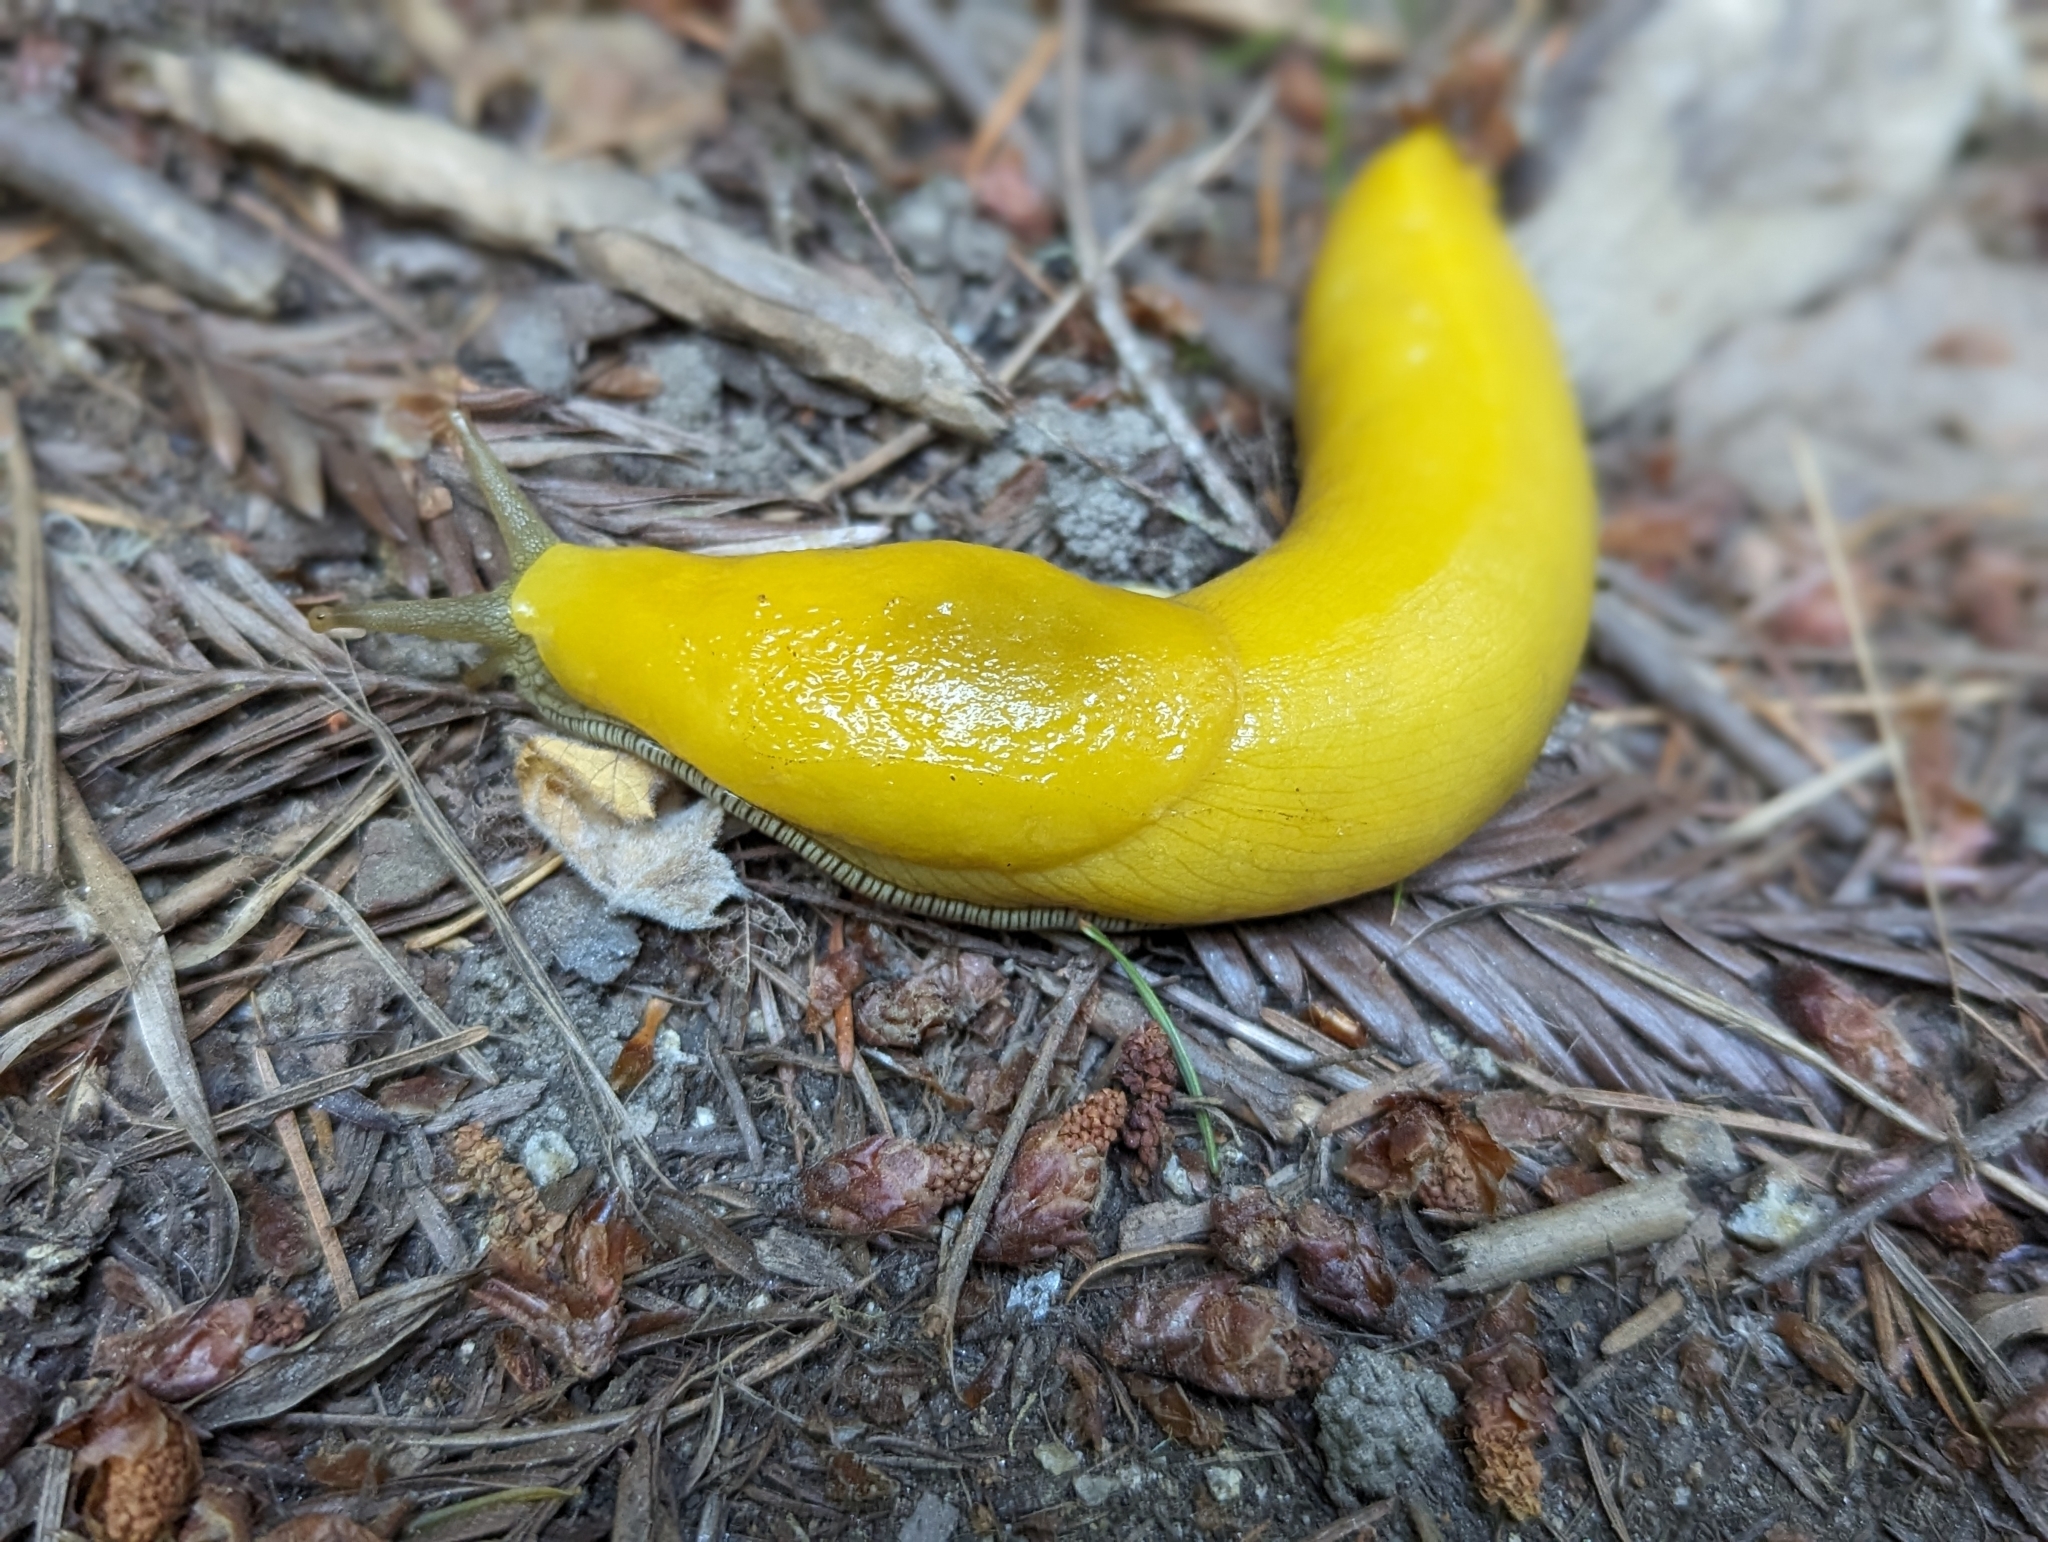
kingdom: Animalia
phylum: Mollusca
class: Gastropoda
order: Stylommatophora
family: Ariolimacidae
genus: Ariolimax
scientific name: Ariolimax dolichophallus
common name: Slender banana slug
